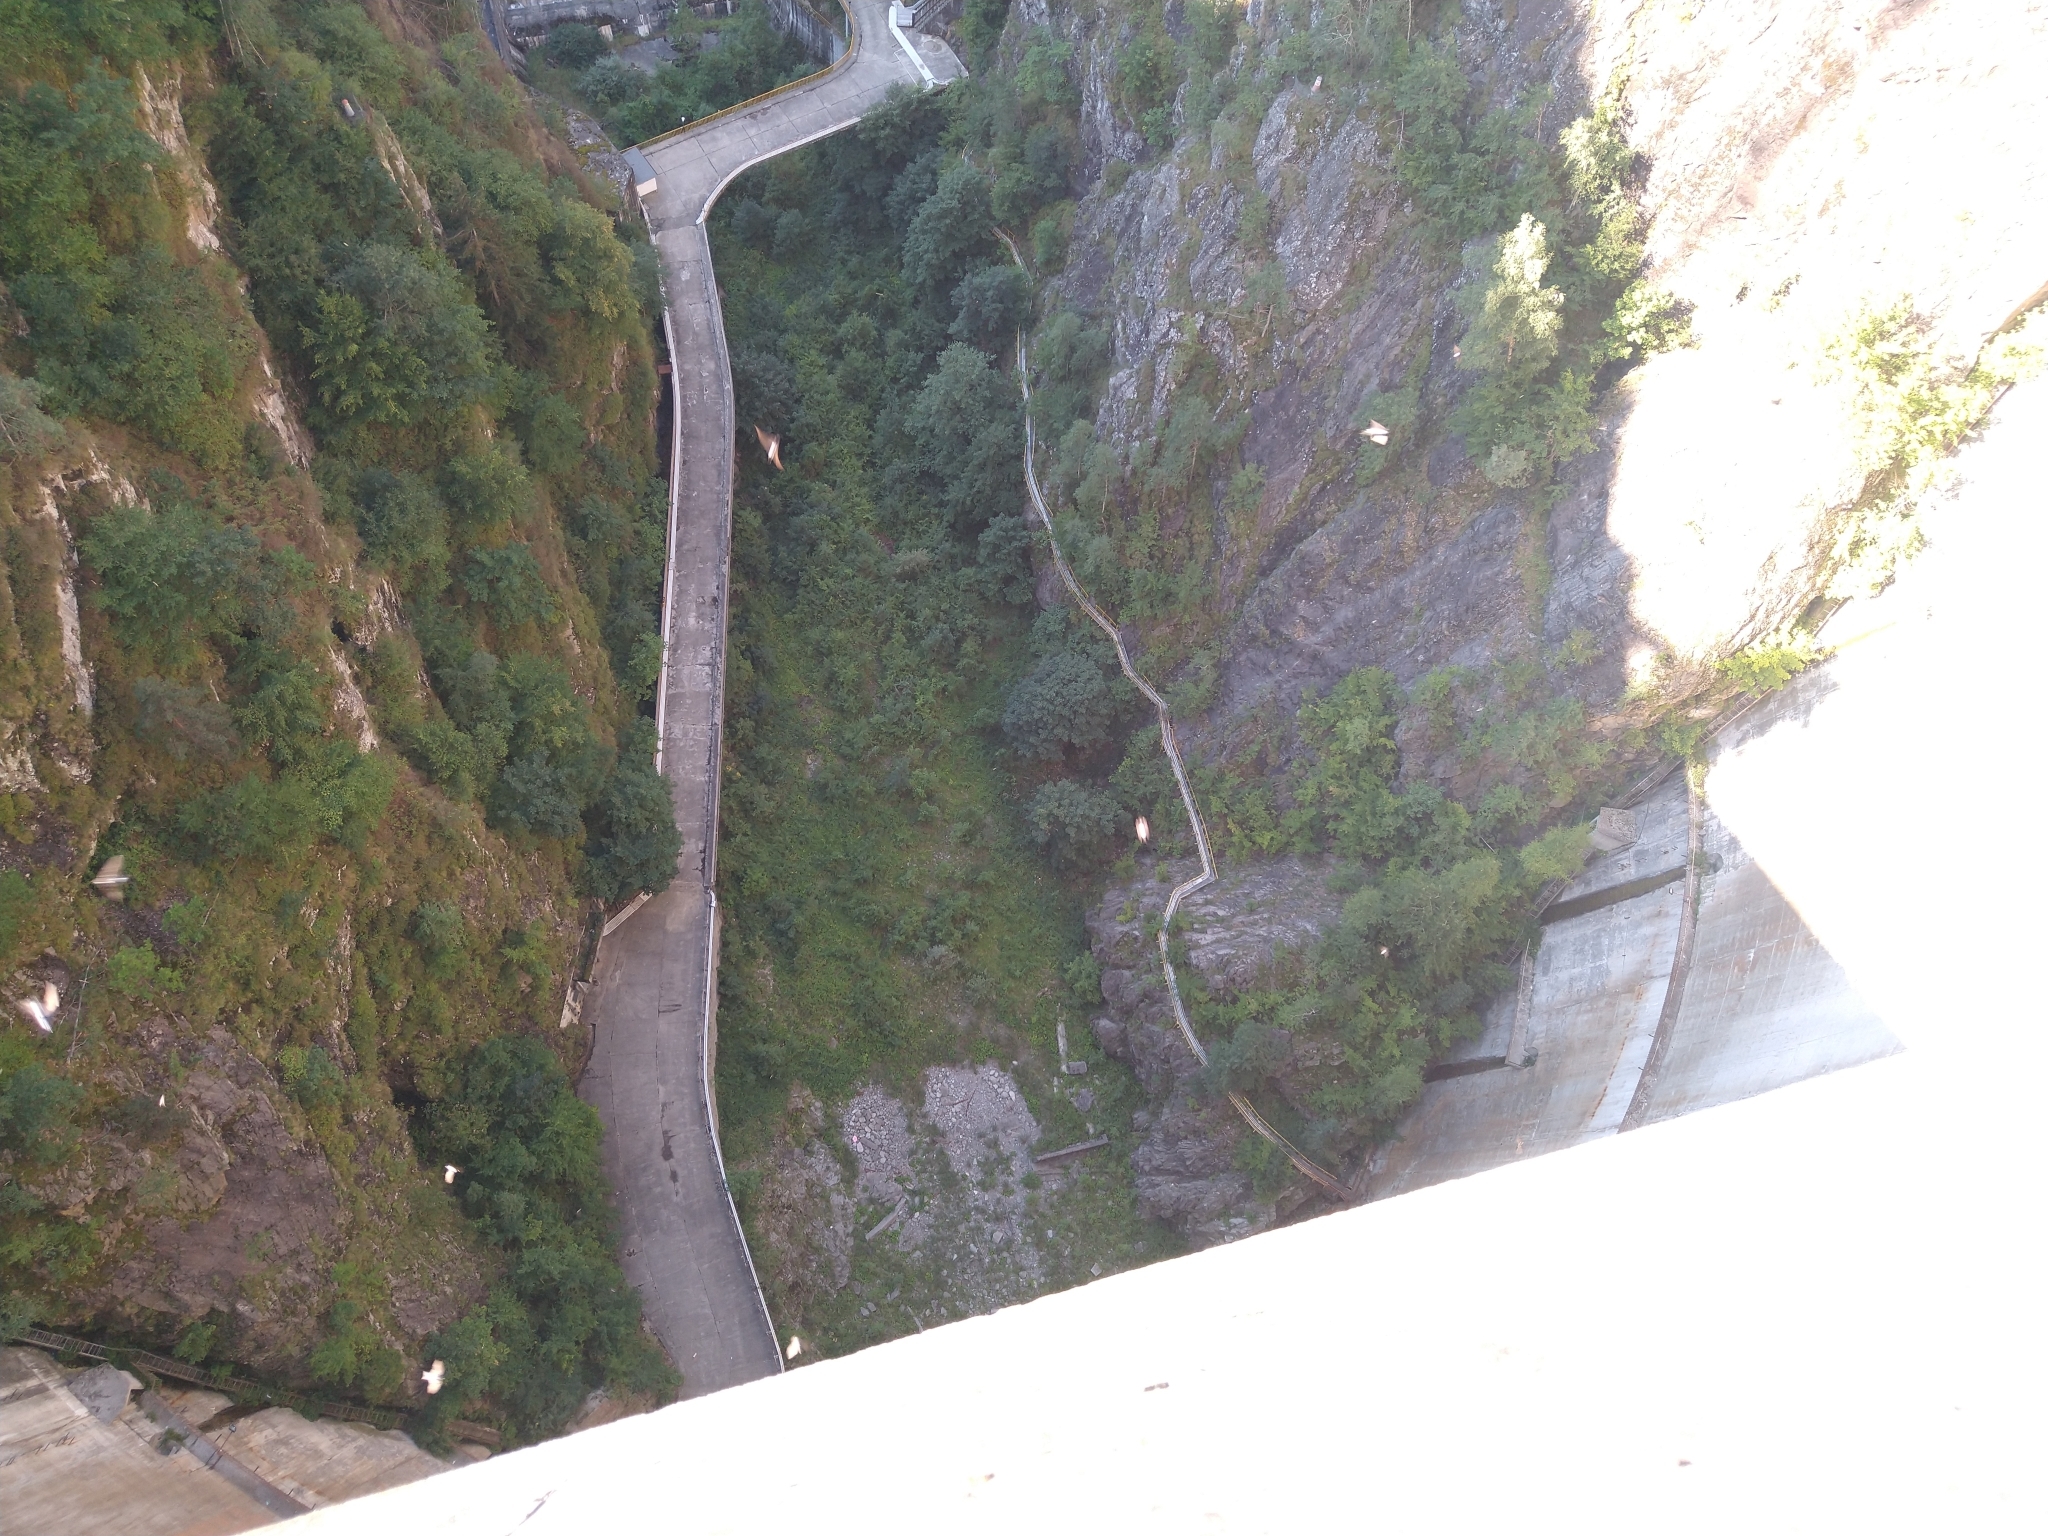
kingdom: Animalia
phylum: Chordata
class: Aves
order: Passeriformes
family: Hirundinidae
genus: Delichon
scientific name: Delichon urbicum
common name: Common house martin
